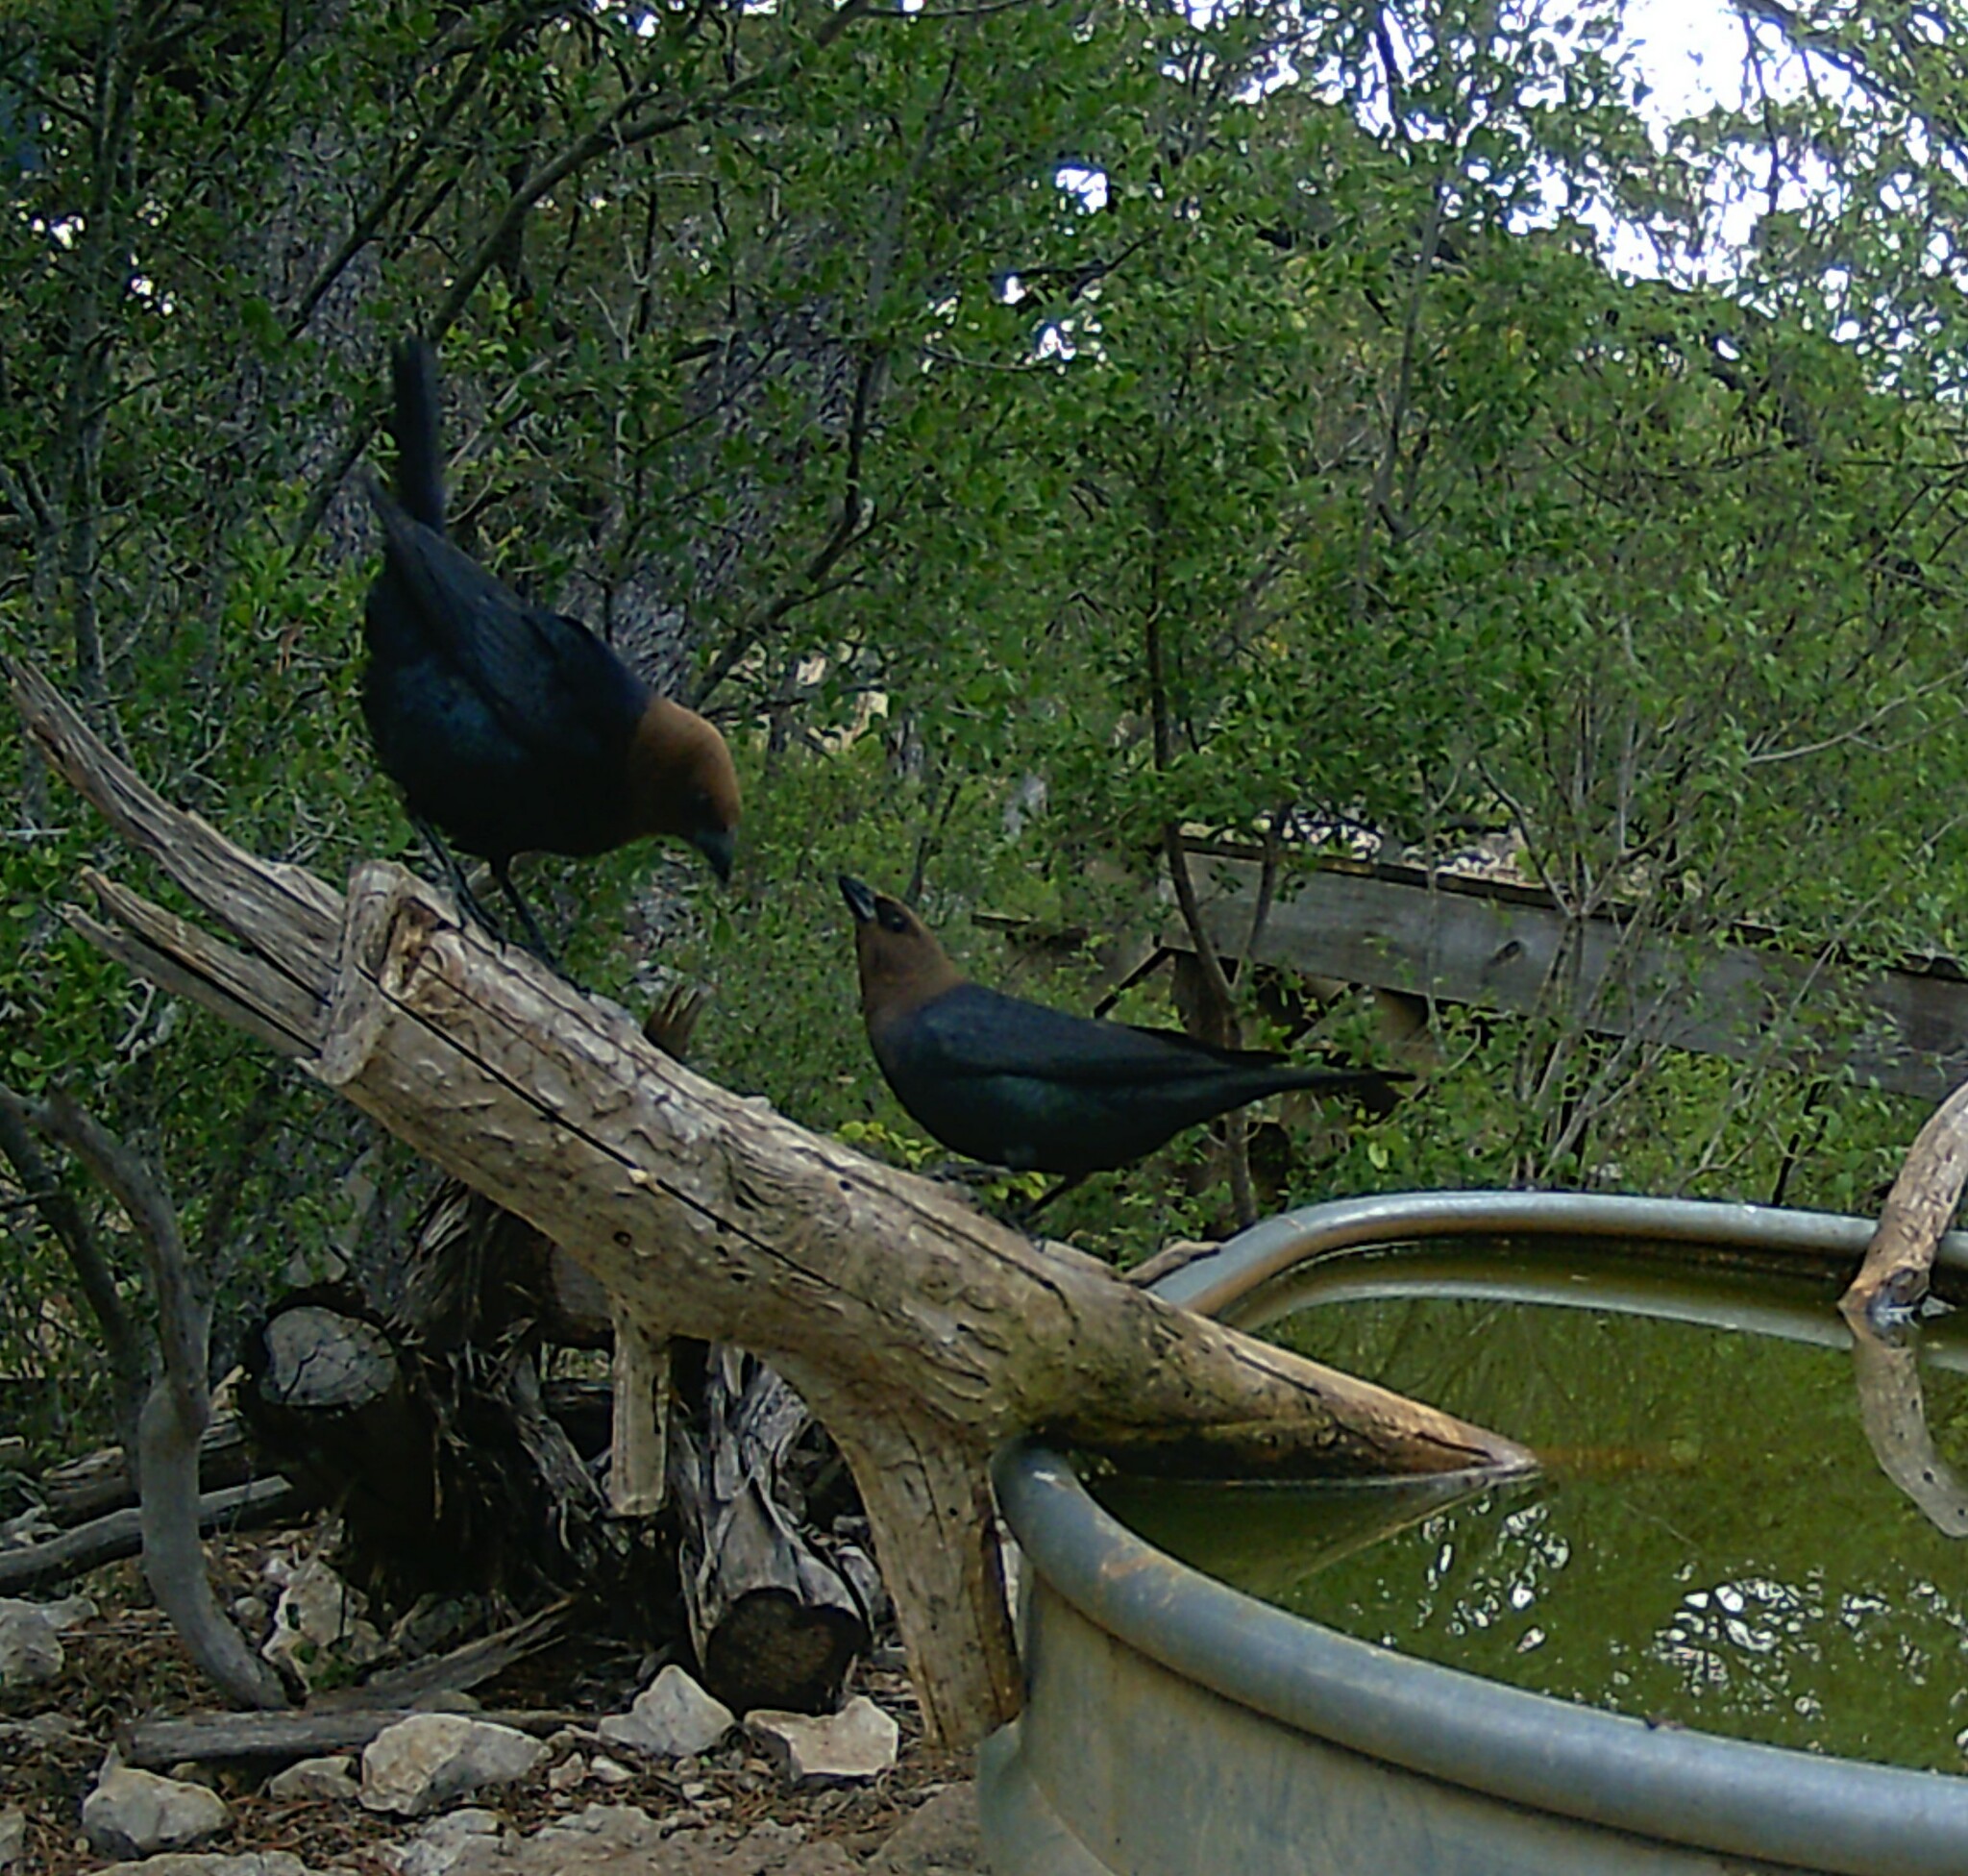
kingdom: Animalia
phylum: Chordata
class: Aves
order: Passeriformes
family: Icteridae
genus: Molothrus
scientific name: Molothrus ater
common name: Brown-headed cowbird
